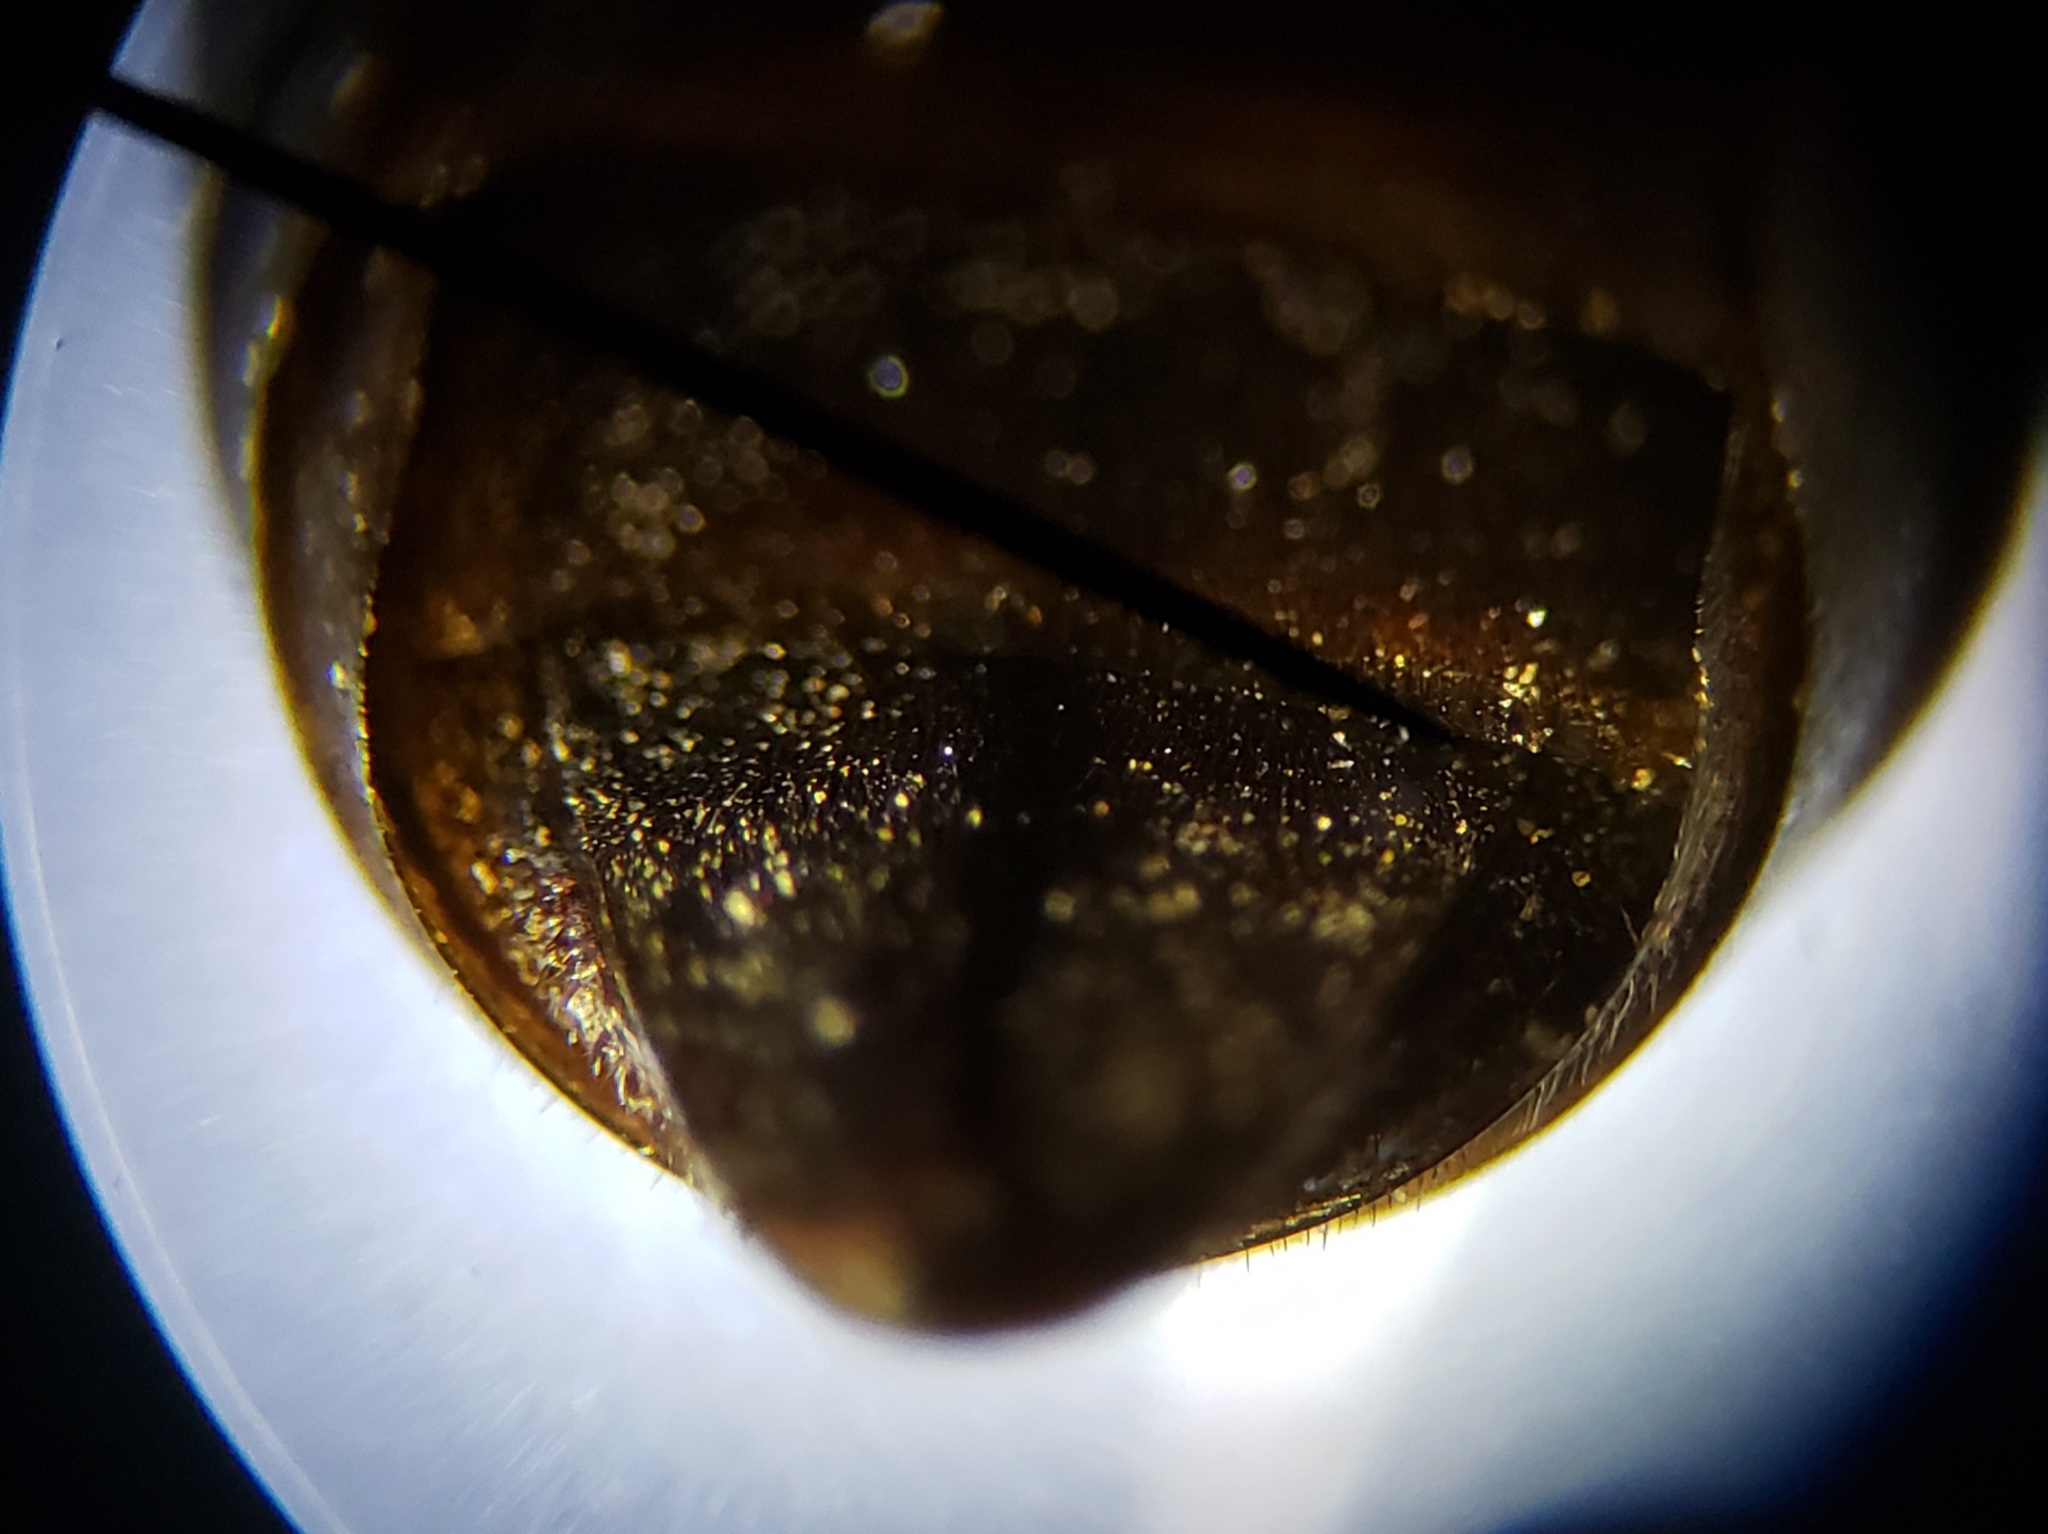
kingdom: Animalia
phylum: Arthropoda
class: Insecta
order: Hymenoptera
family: Crabronidae
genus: Bicyrtes
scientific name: Bicyrtes capnopterus
